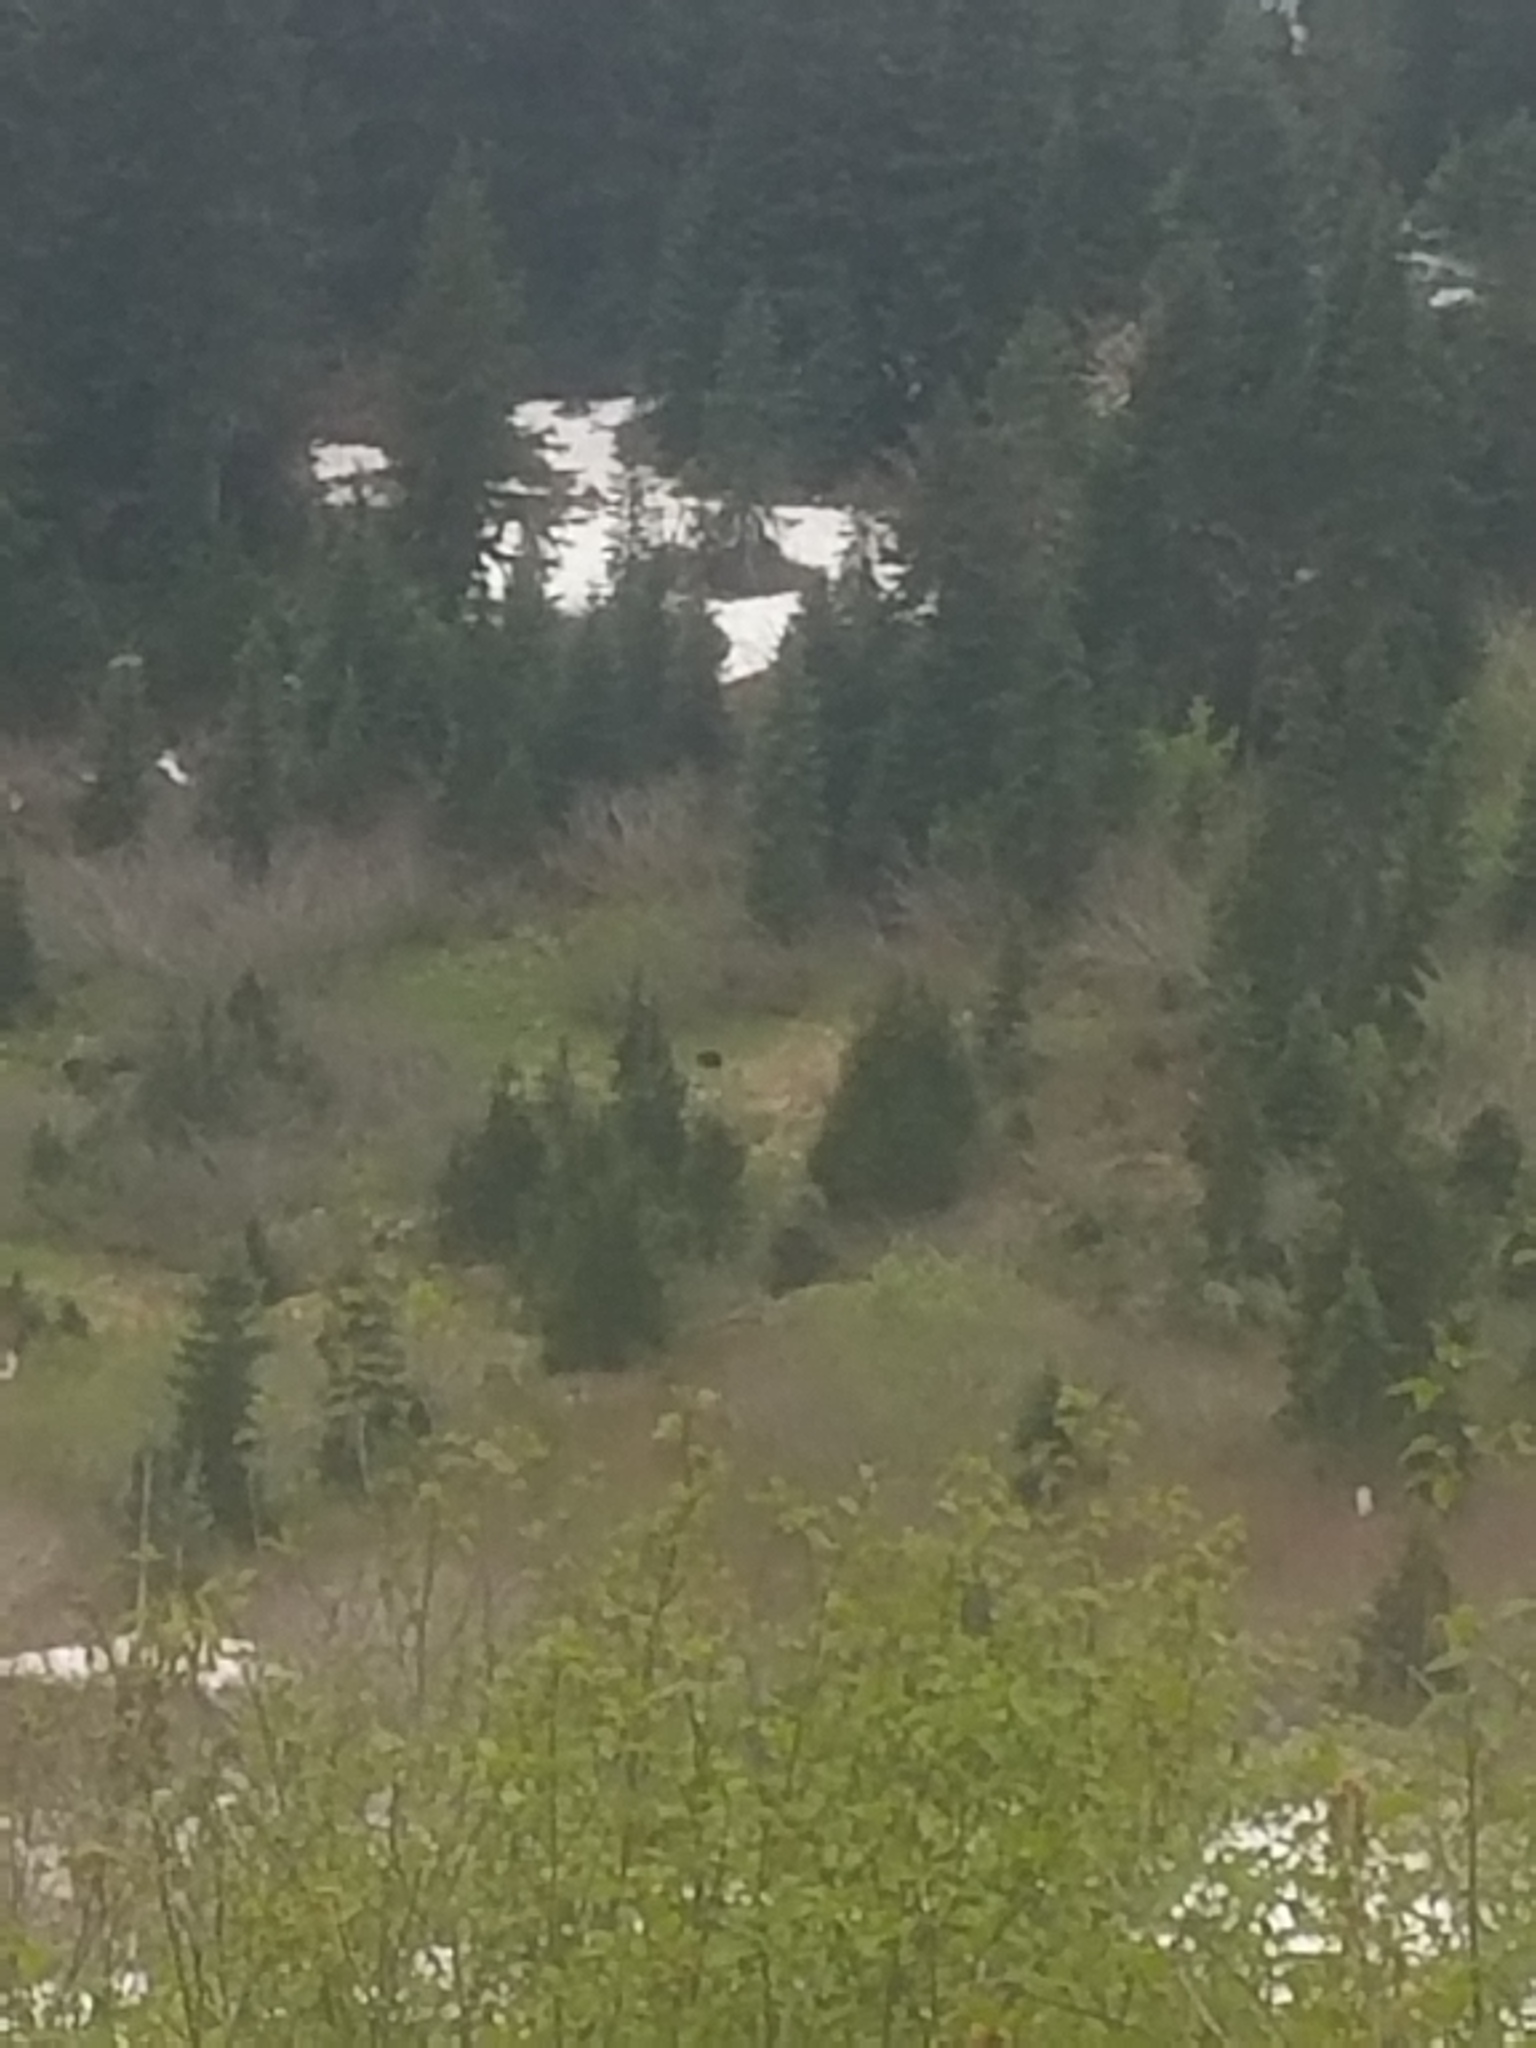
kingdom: Animalia
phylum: Chordata
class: Mammalia
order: Carnivora
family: Ursidae
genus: Ursus
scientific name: Ursus americanus
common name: American black bear
